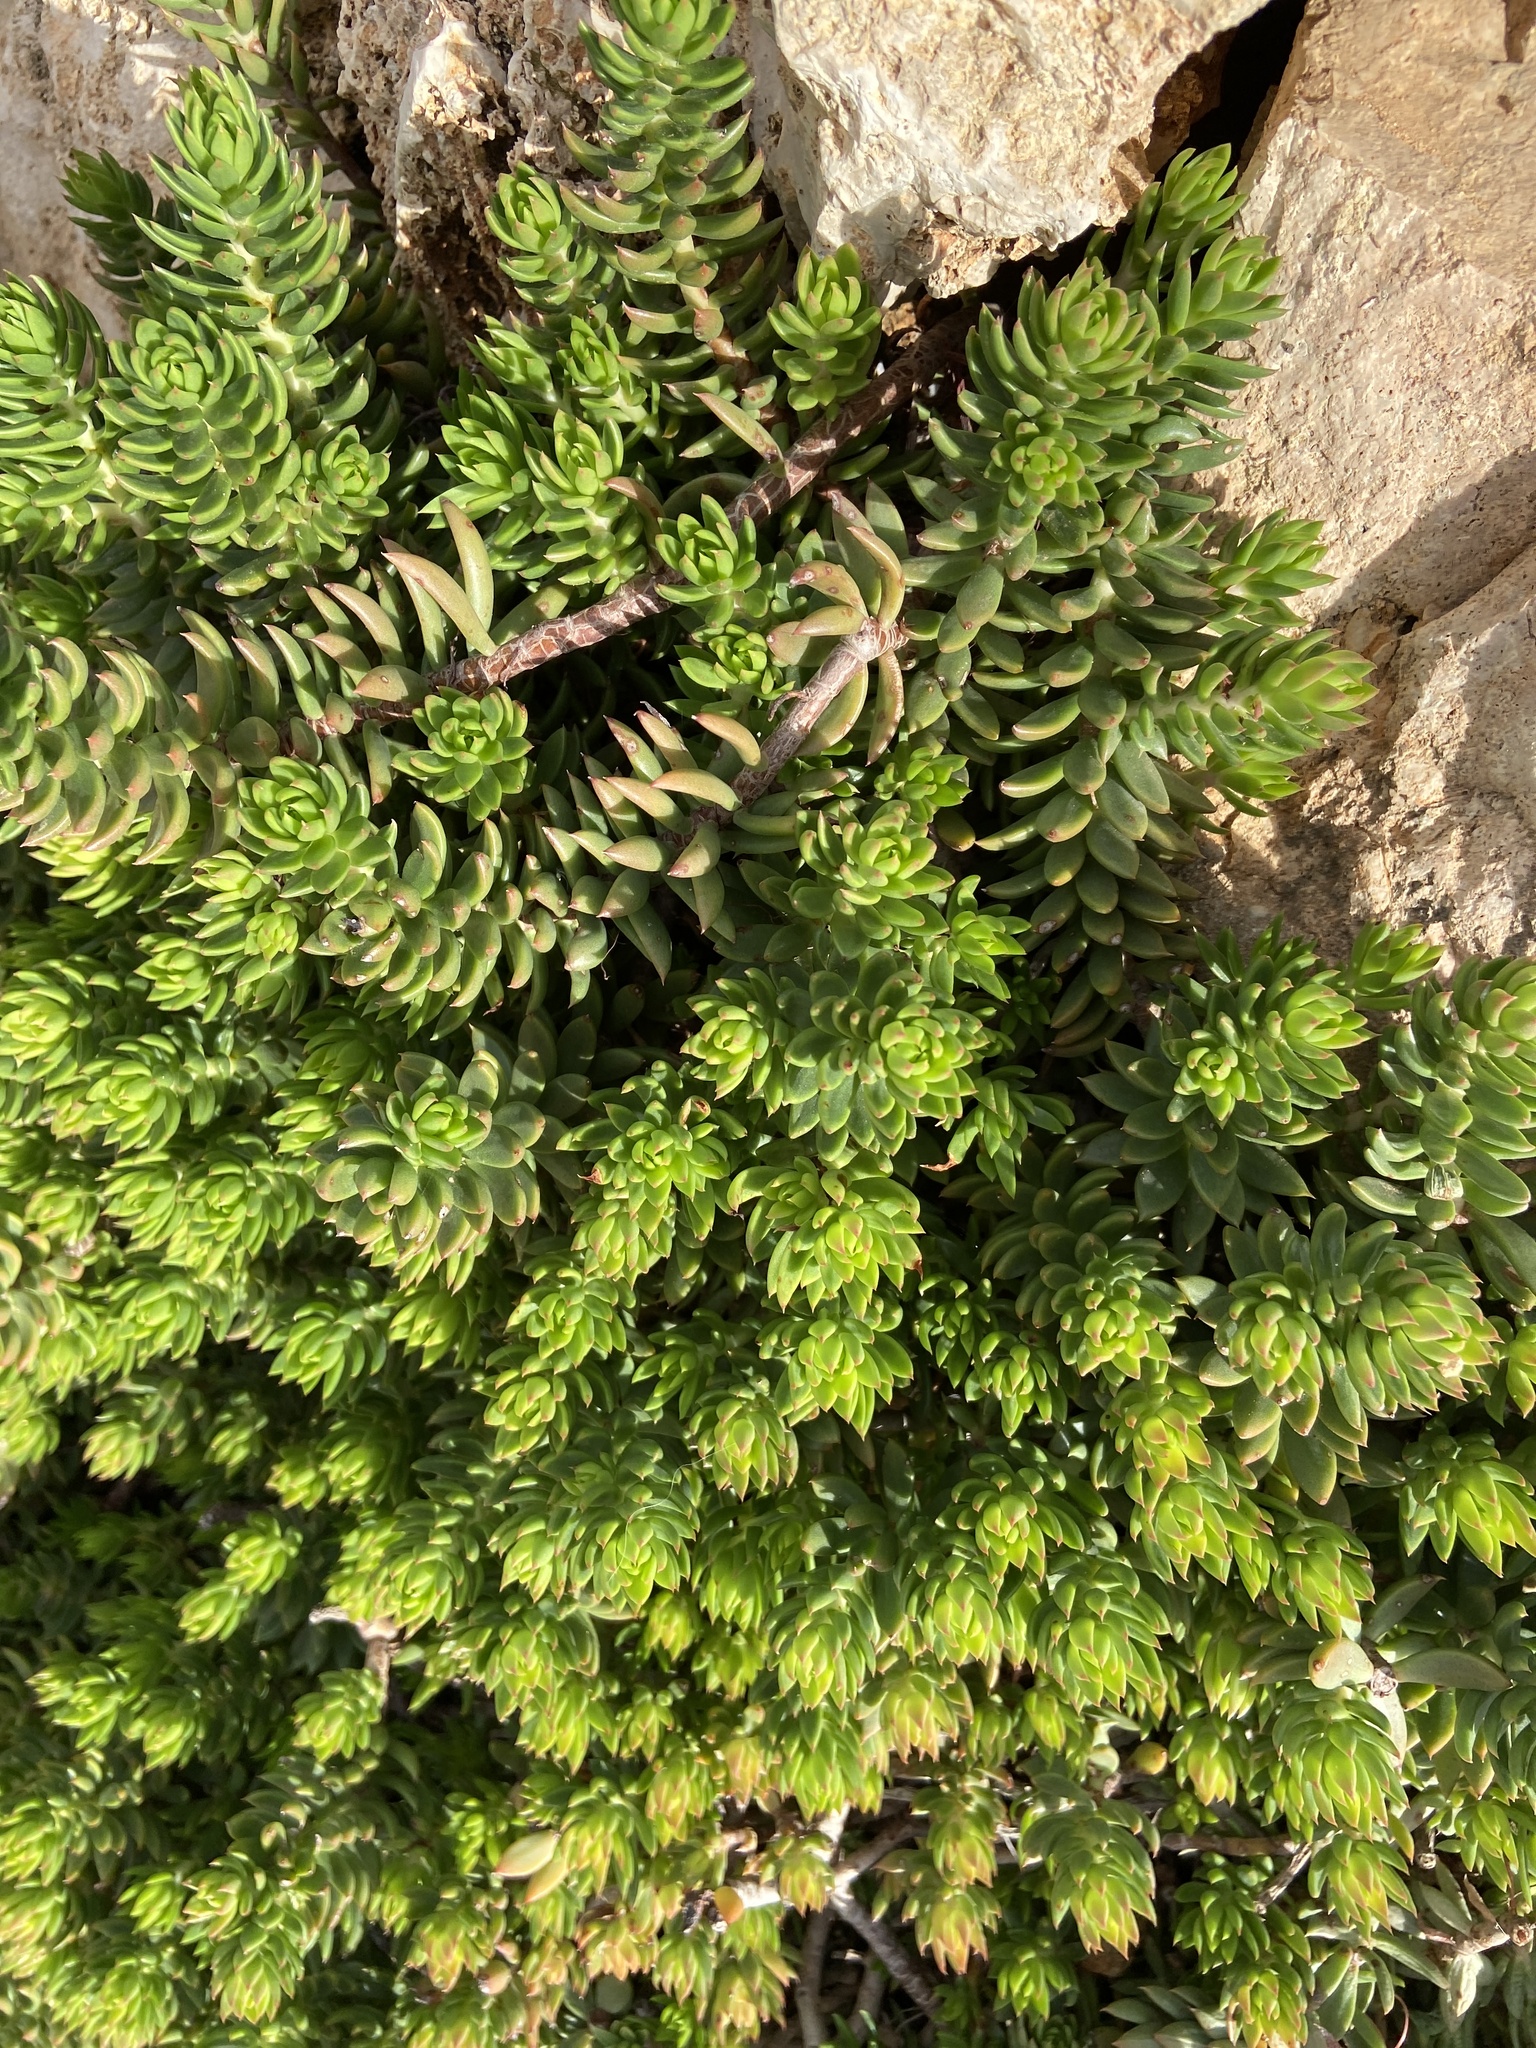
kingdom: Plantae
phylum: Tracheophyta
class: Magnoliopsida
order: Saxifragales
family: Crassulaceae
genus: Petrosedum
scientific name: Petrosedum sediforme
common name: Pale stonecrop
